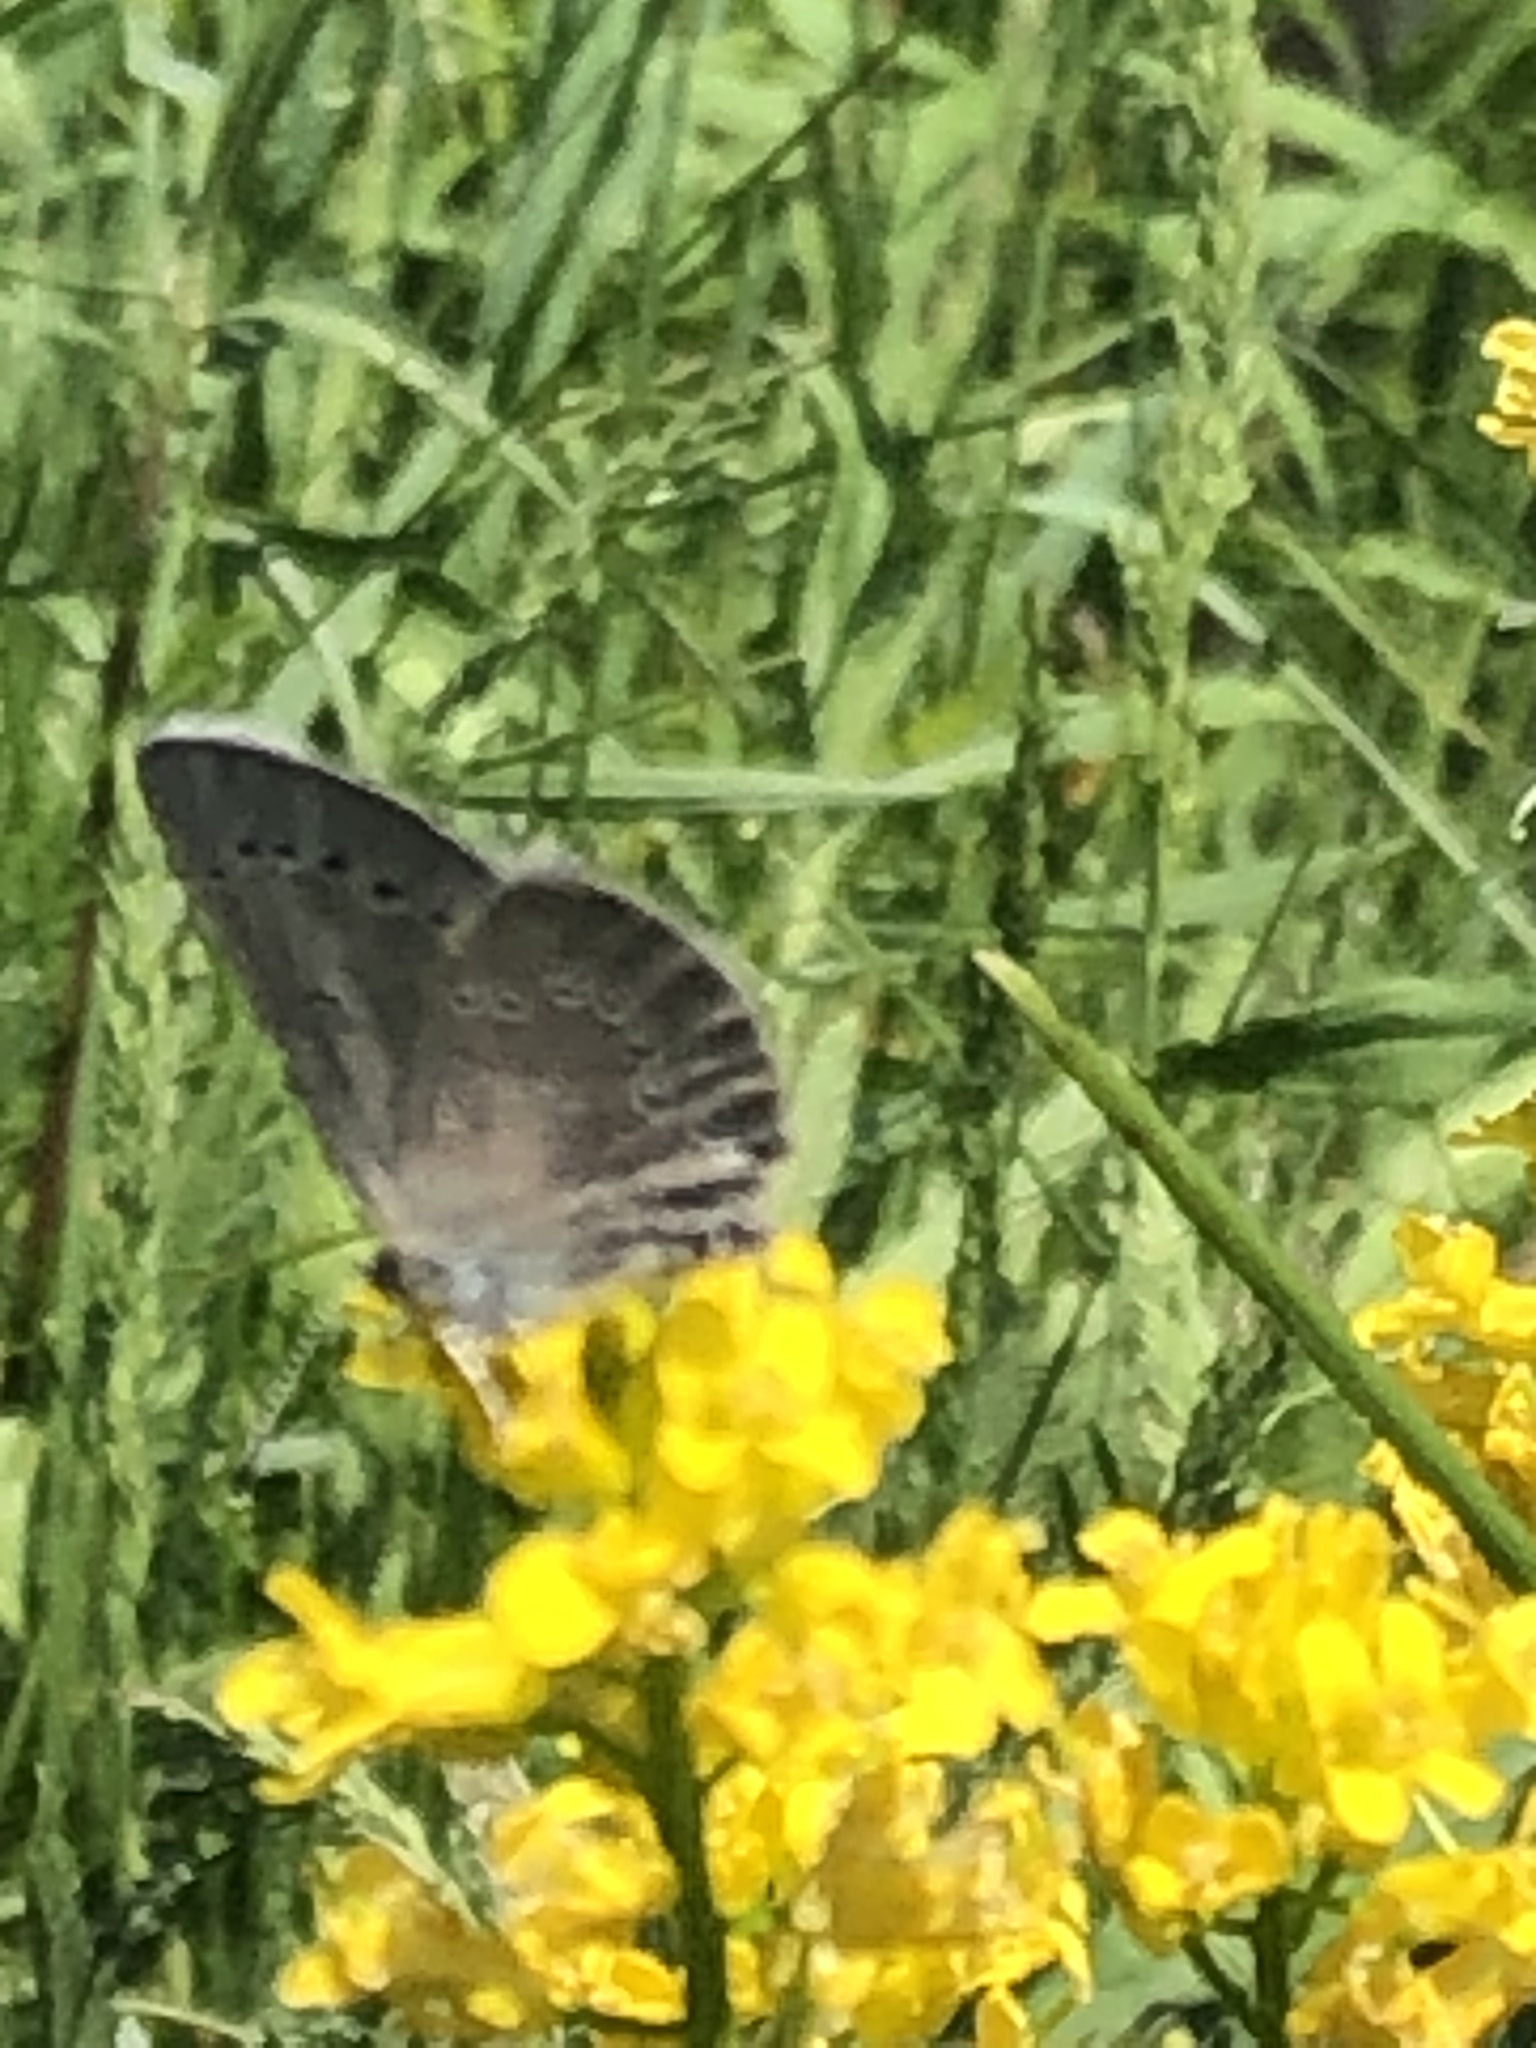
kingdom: Animalia
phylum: Arthropoda
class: Insecta
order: Lepidoptera
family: Lycaenidae
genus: Glaucopsyche
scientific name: Glaucopsyche lygdamus
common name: Silvery blue
